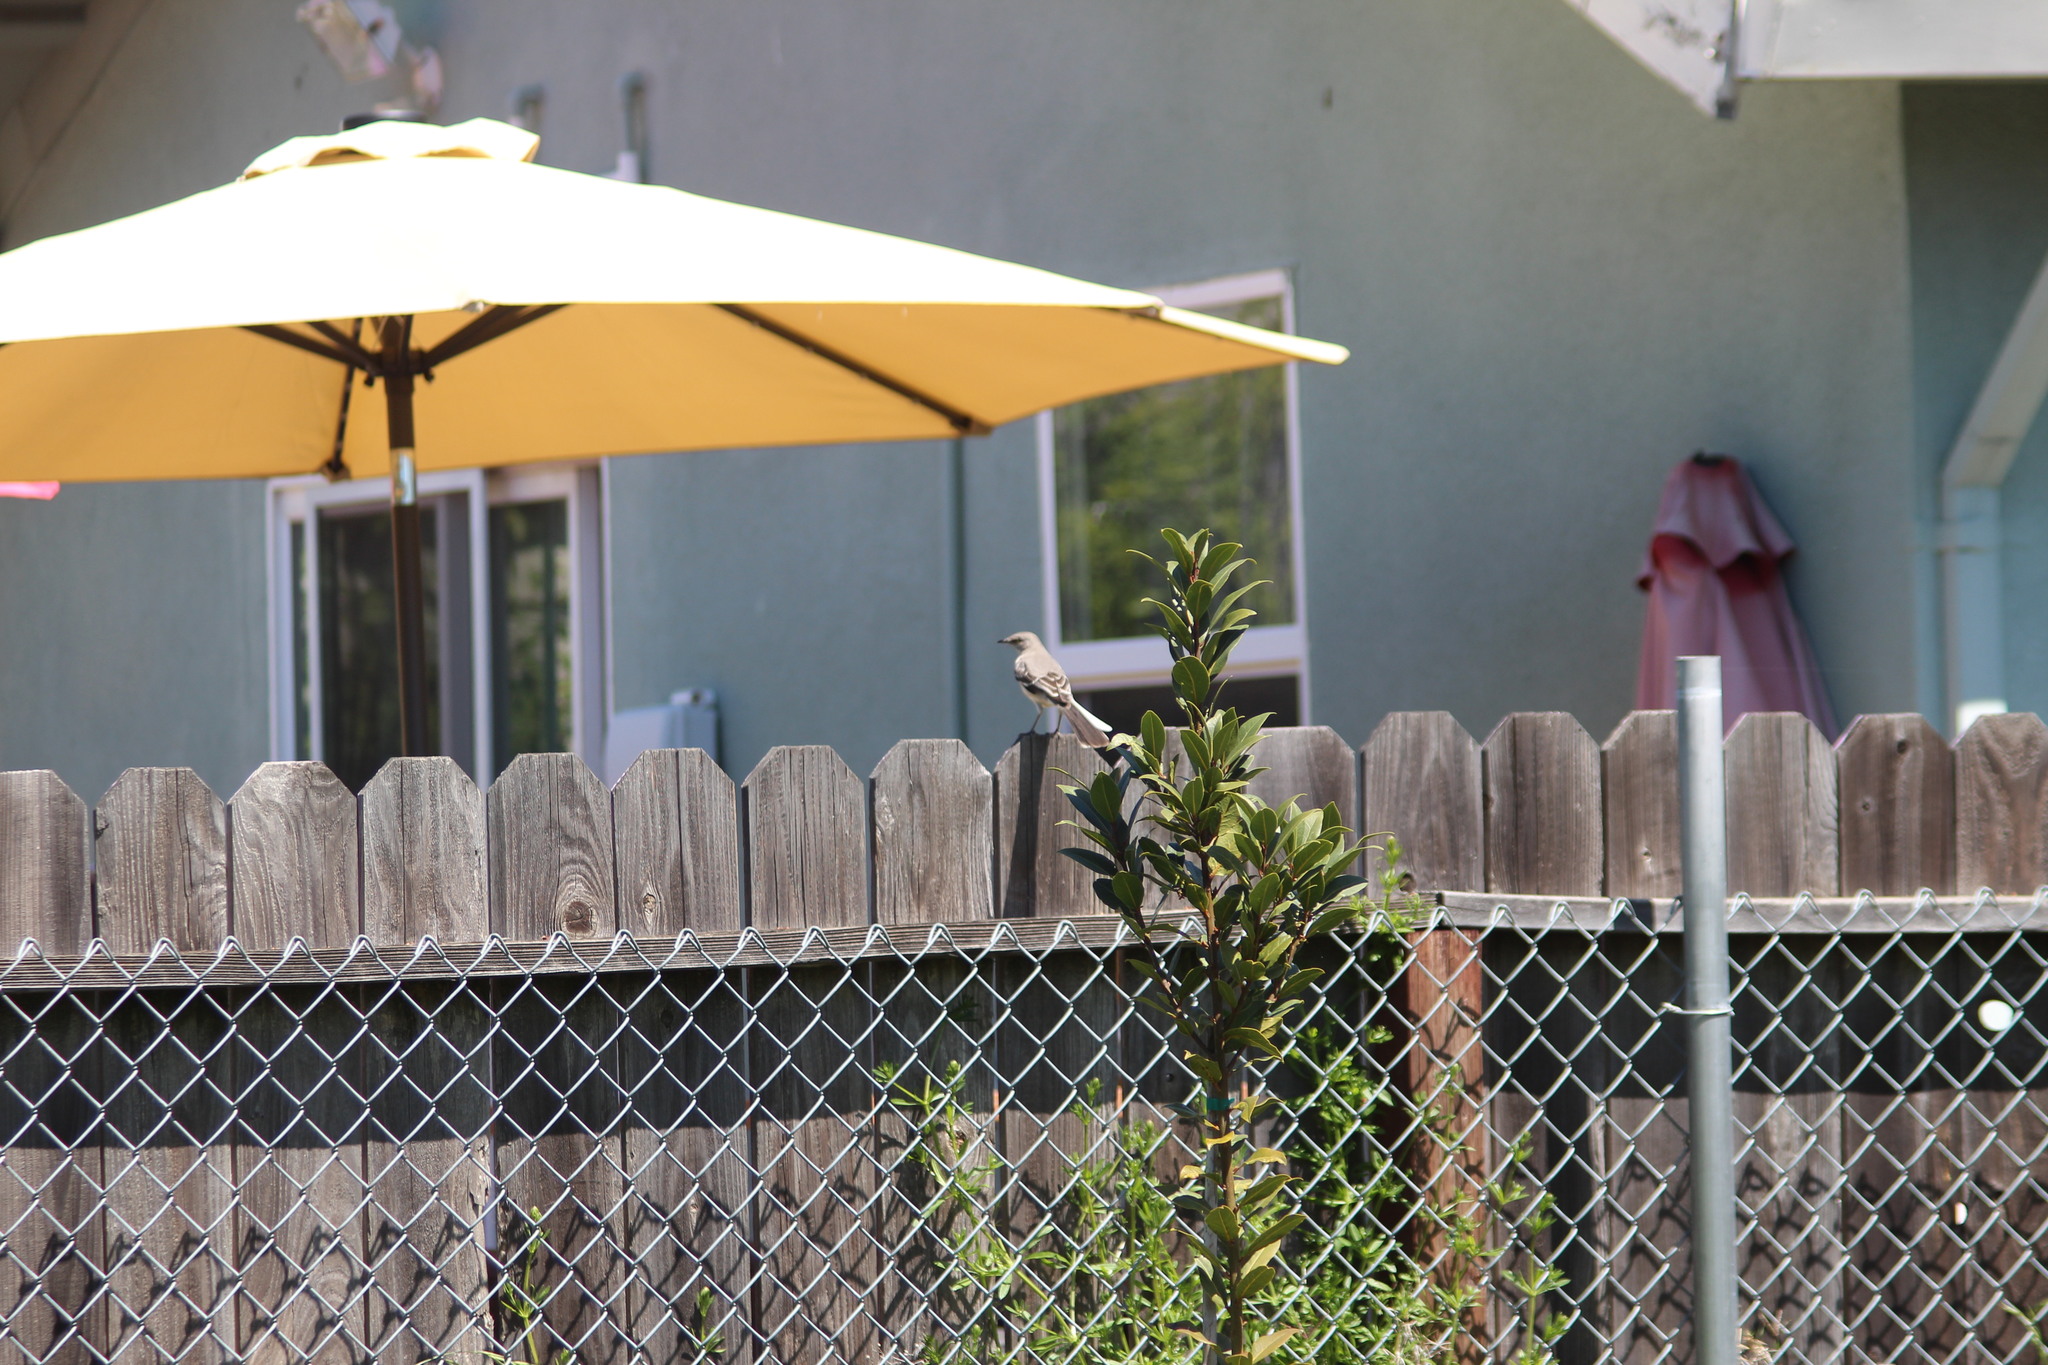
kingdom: Animalia
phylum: Chordata
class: Aves
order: Passeriformes
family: Mimidae
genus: Mimus
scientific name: Mimus polyglottos
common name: Northern mockingbird
